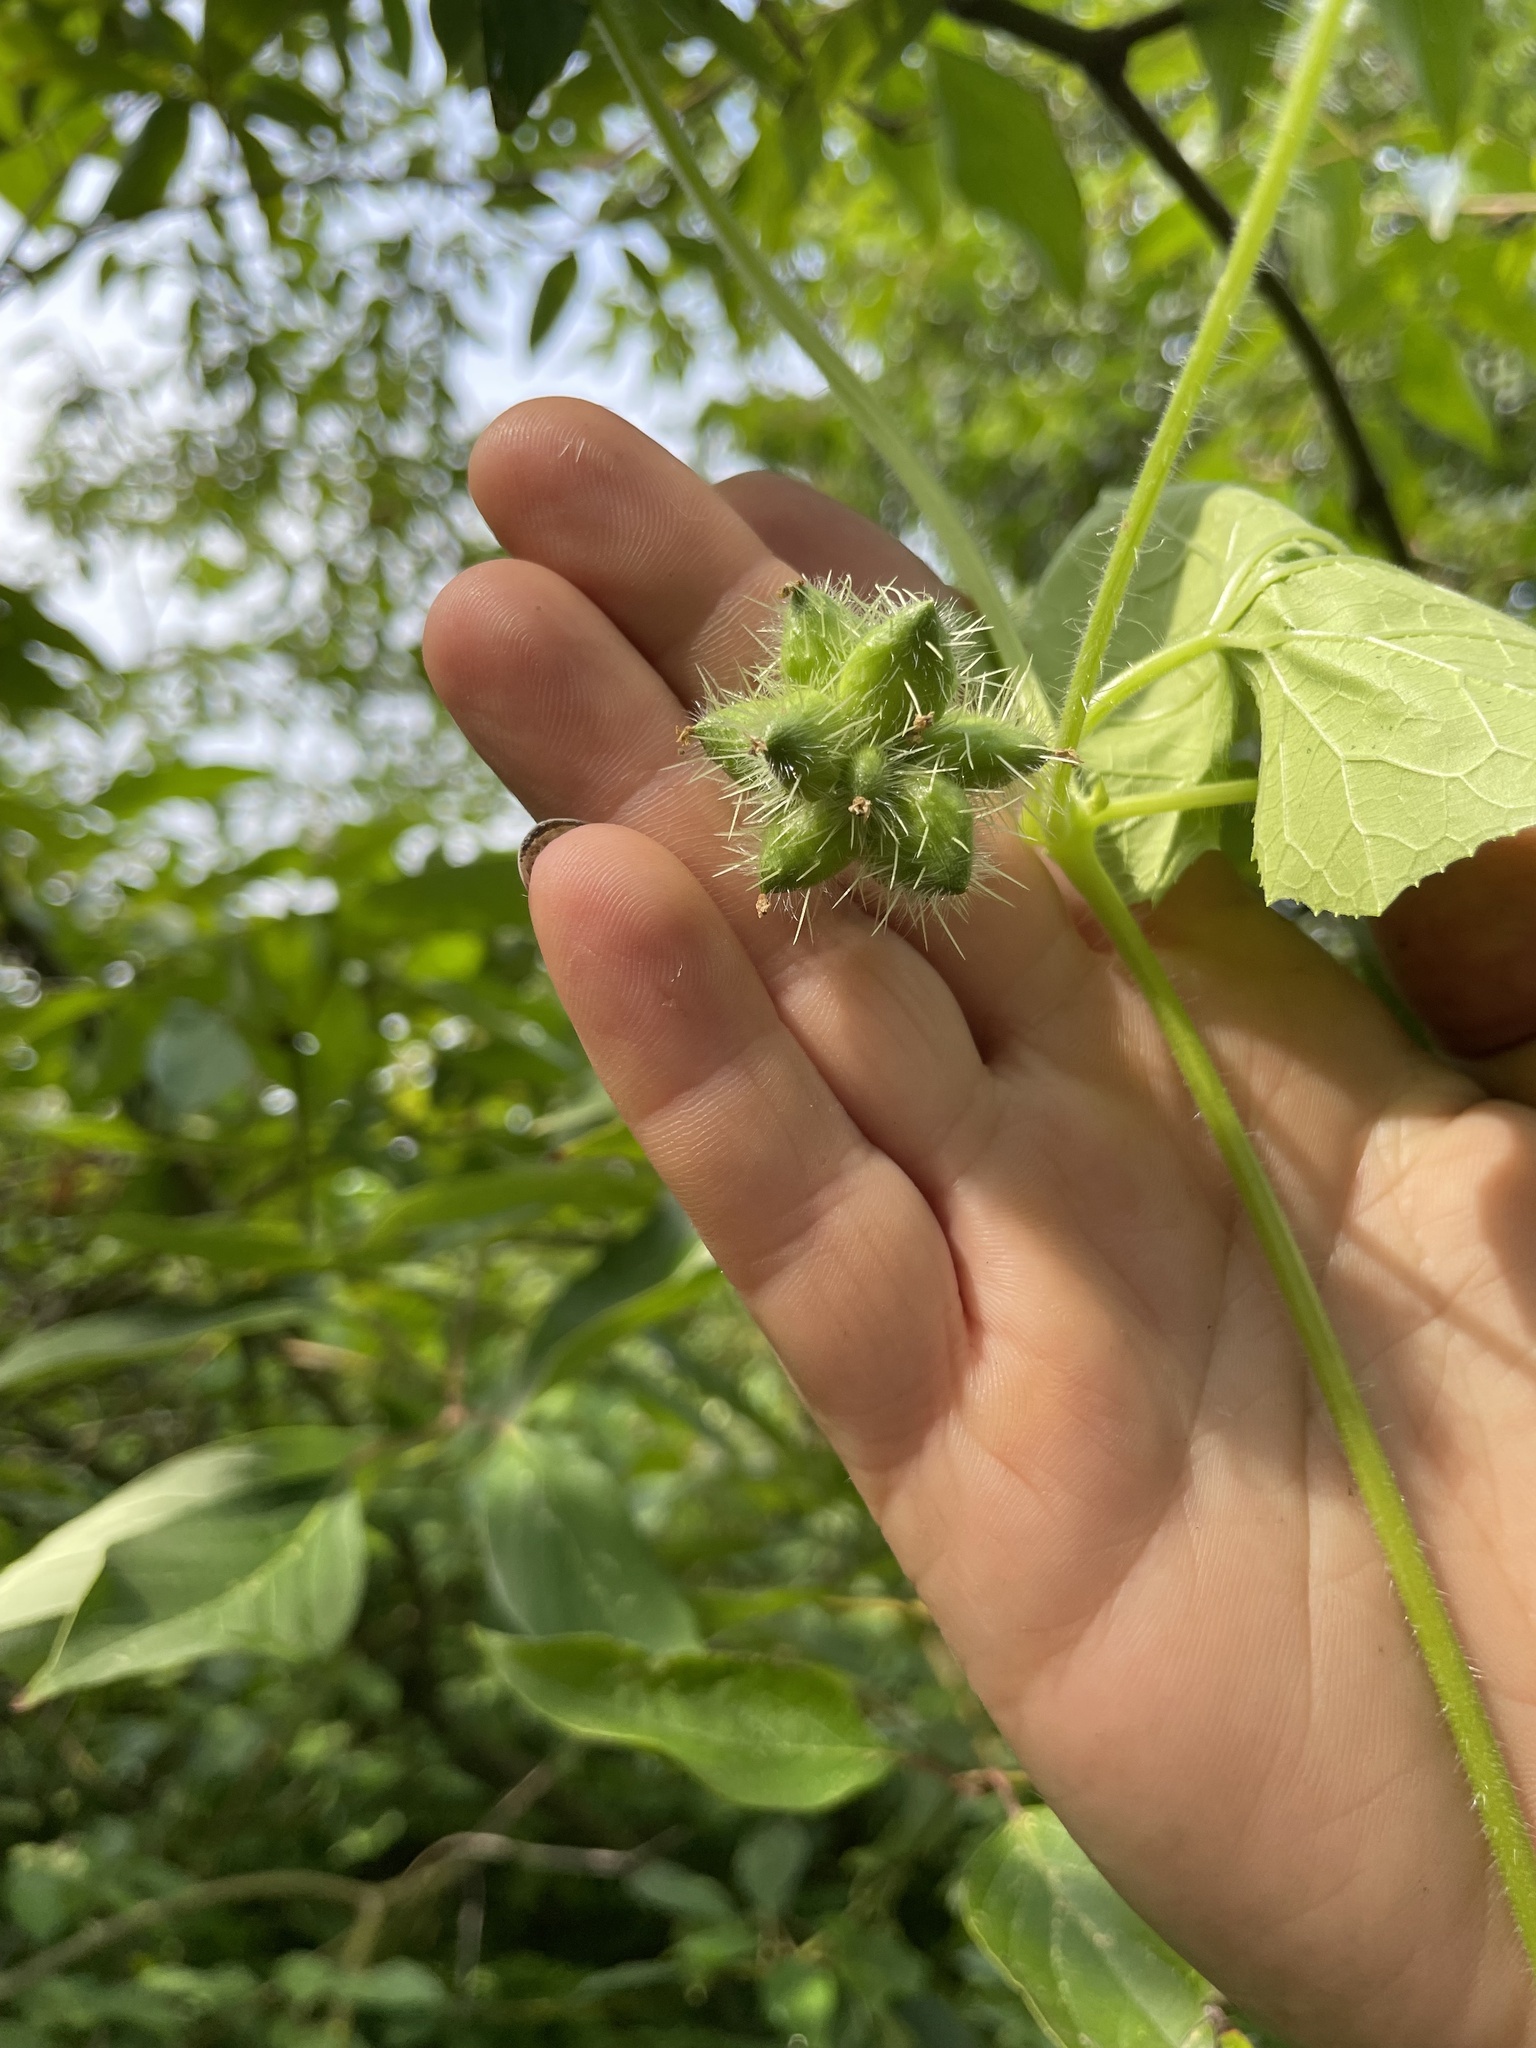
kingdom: Plantae
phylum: Tracheophyta
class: Magnoliopsida
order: Cucurbitales
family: Cucurbitaceae
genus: Sicyos
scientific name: Sicyos angulatus
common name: Angled burr cucumber
